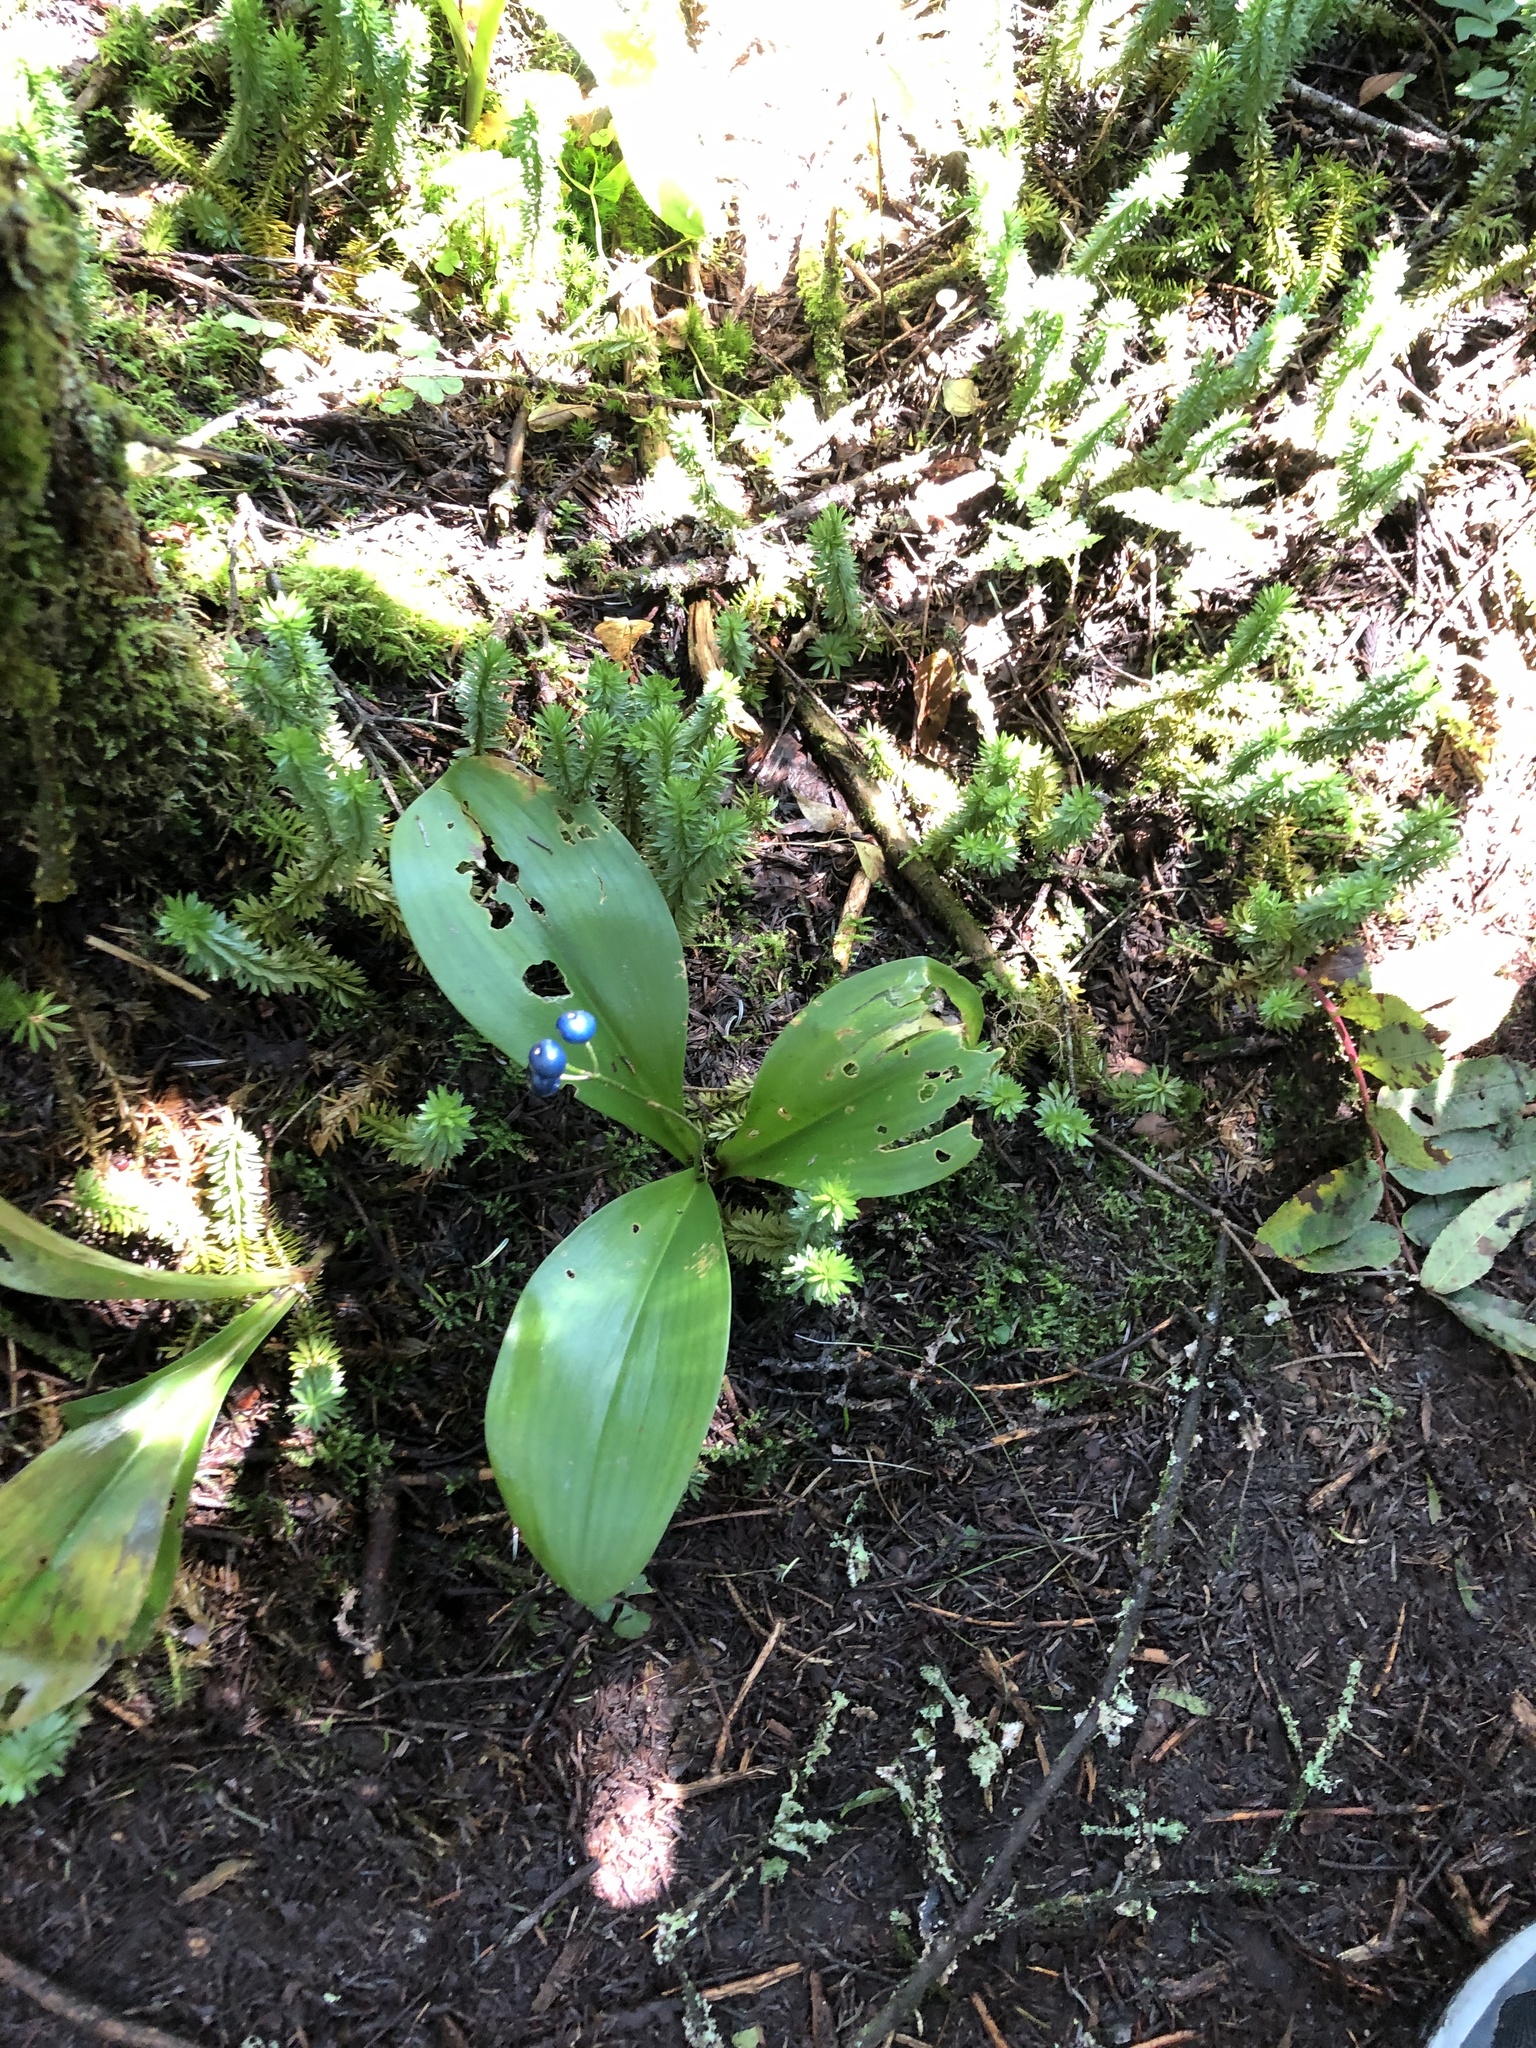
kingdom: Plantae
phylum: Tracheophyta
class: Liliopsida
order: Liliales
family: Liliaceae
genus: Clintonia
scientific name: Clintonia borealis
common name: Yellow clintonia
